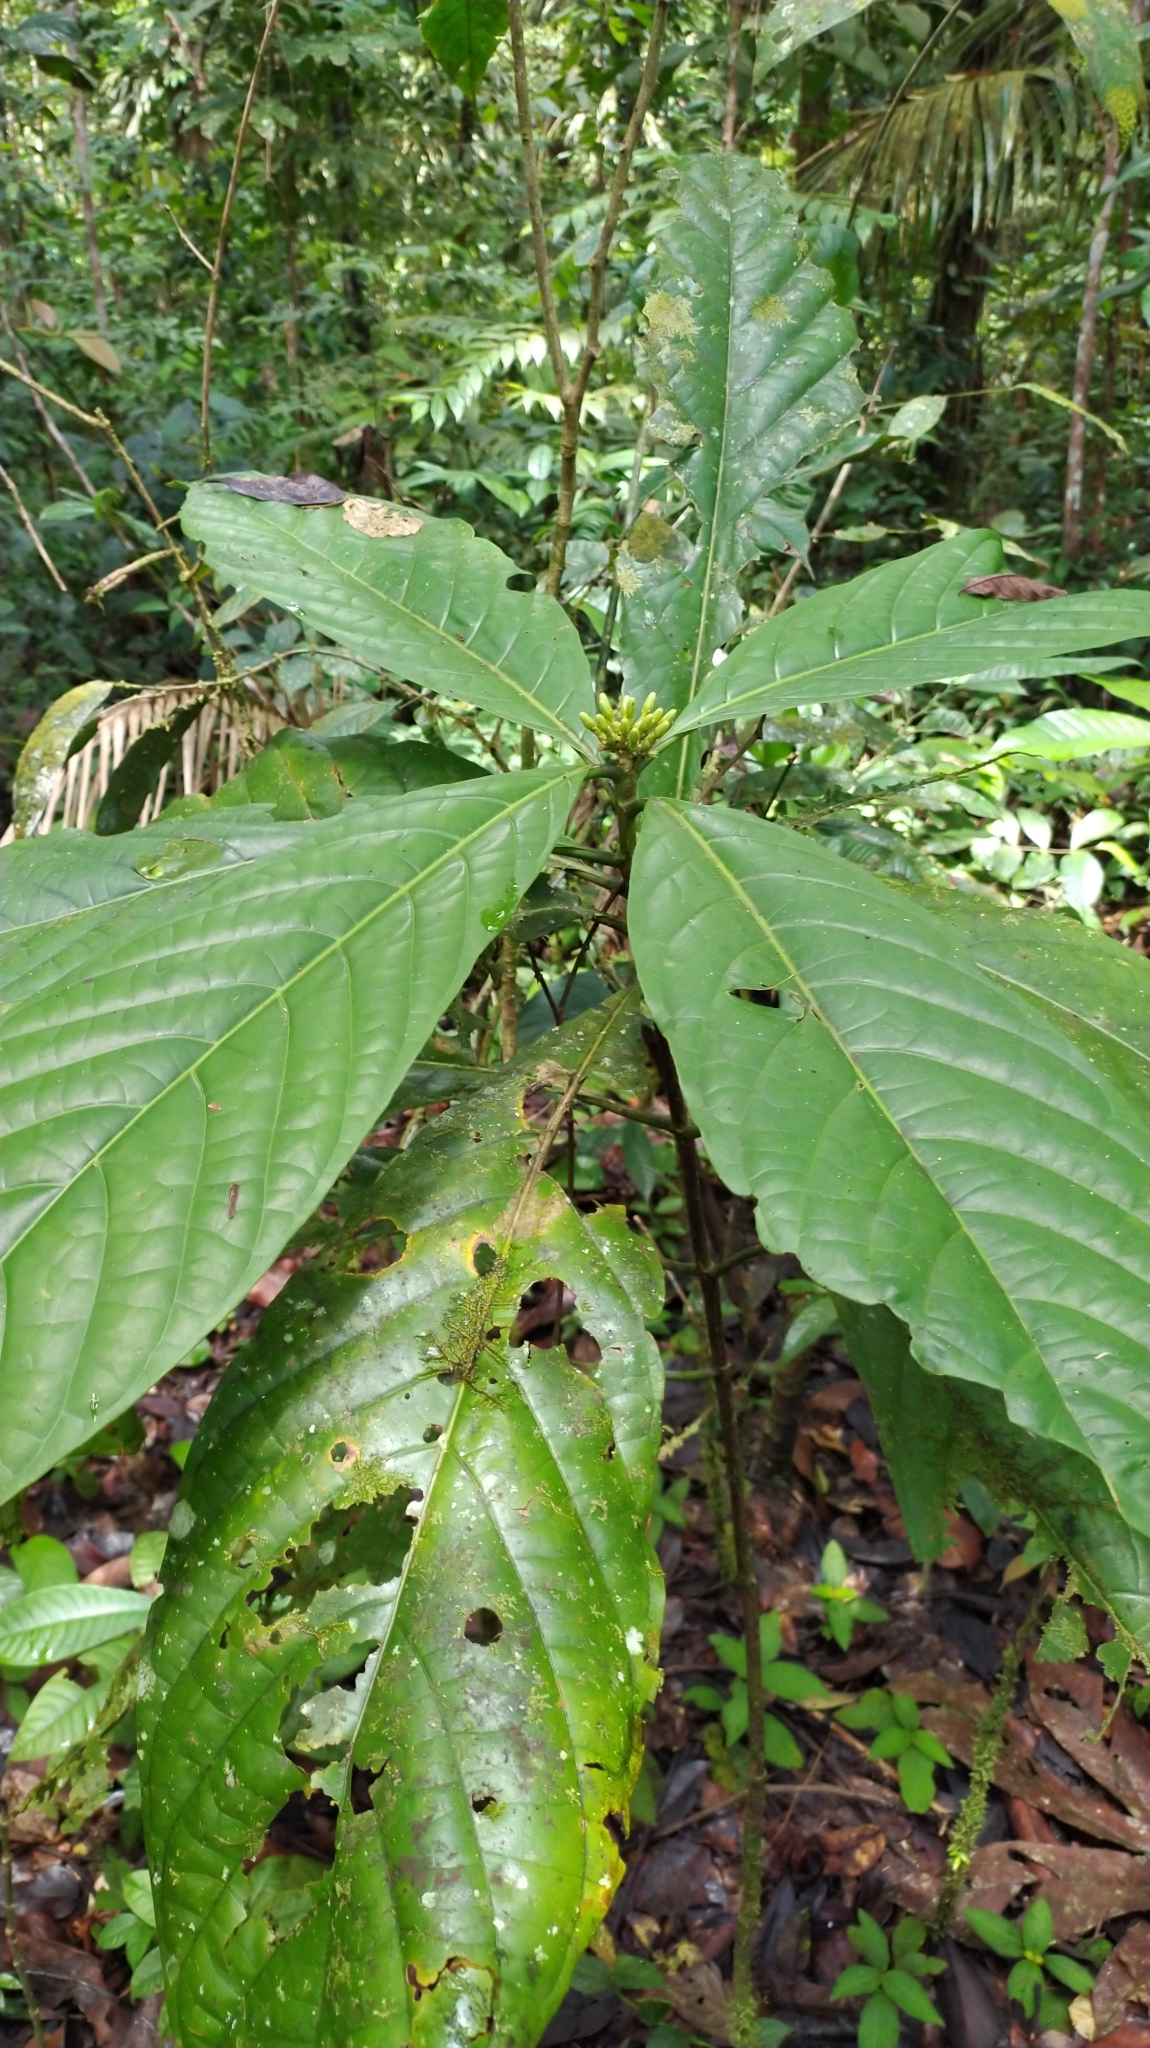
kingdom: Plantae
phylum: Tracheophyta
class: Magnoliopsida
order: Gentianales
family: Rubiaceae
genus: Tocoyena
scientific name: Tocoyena longiflora
